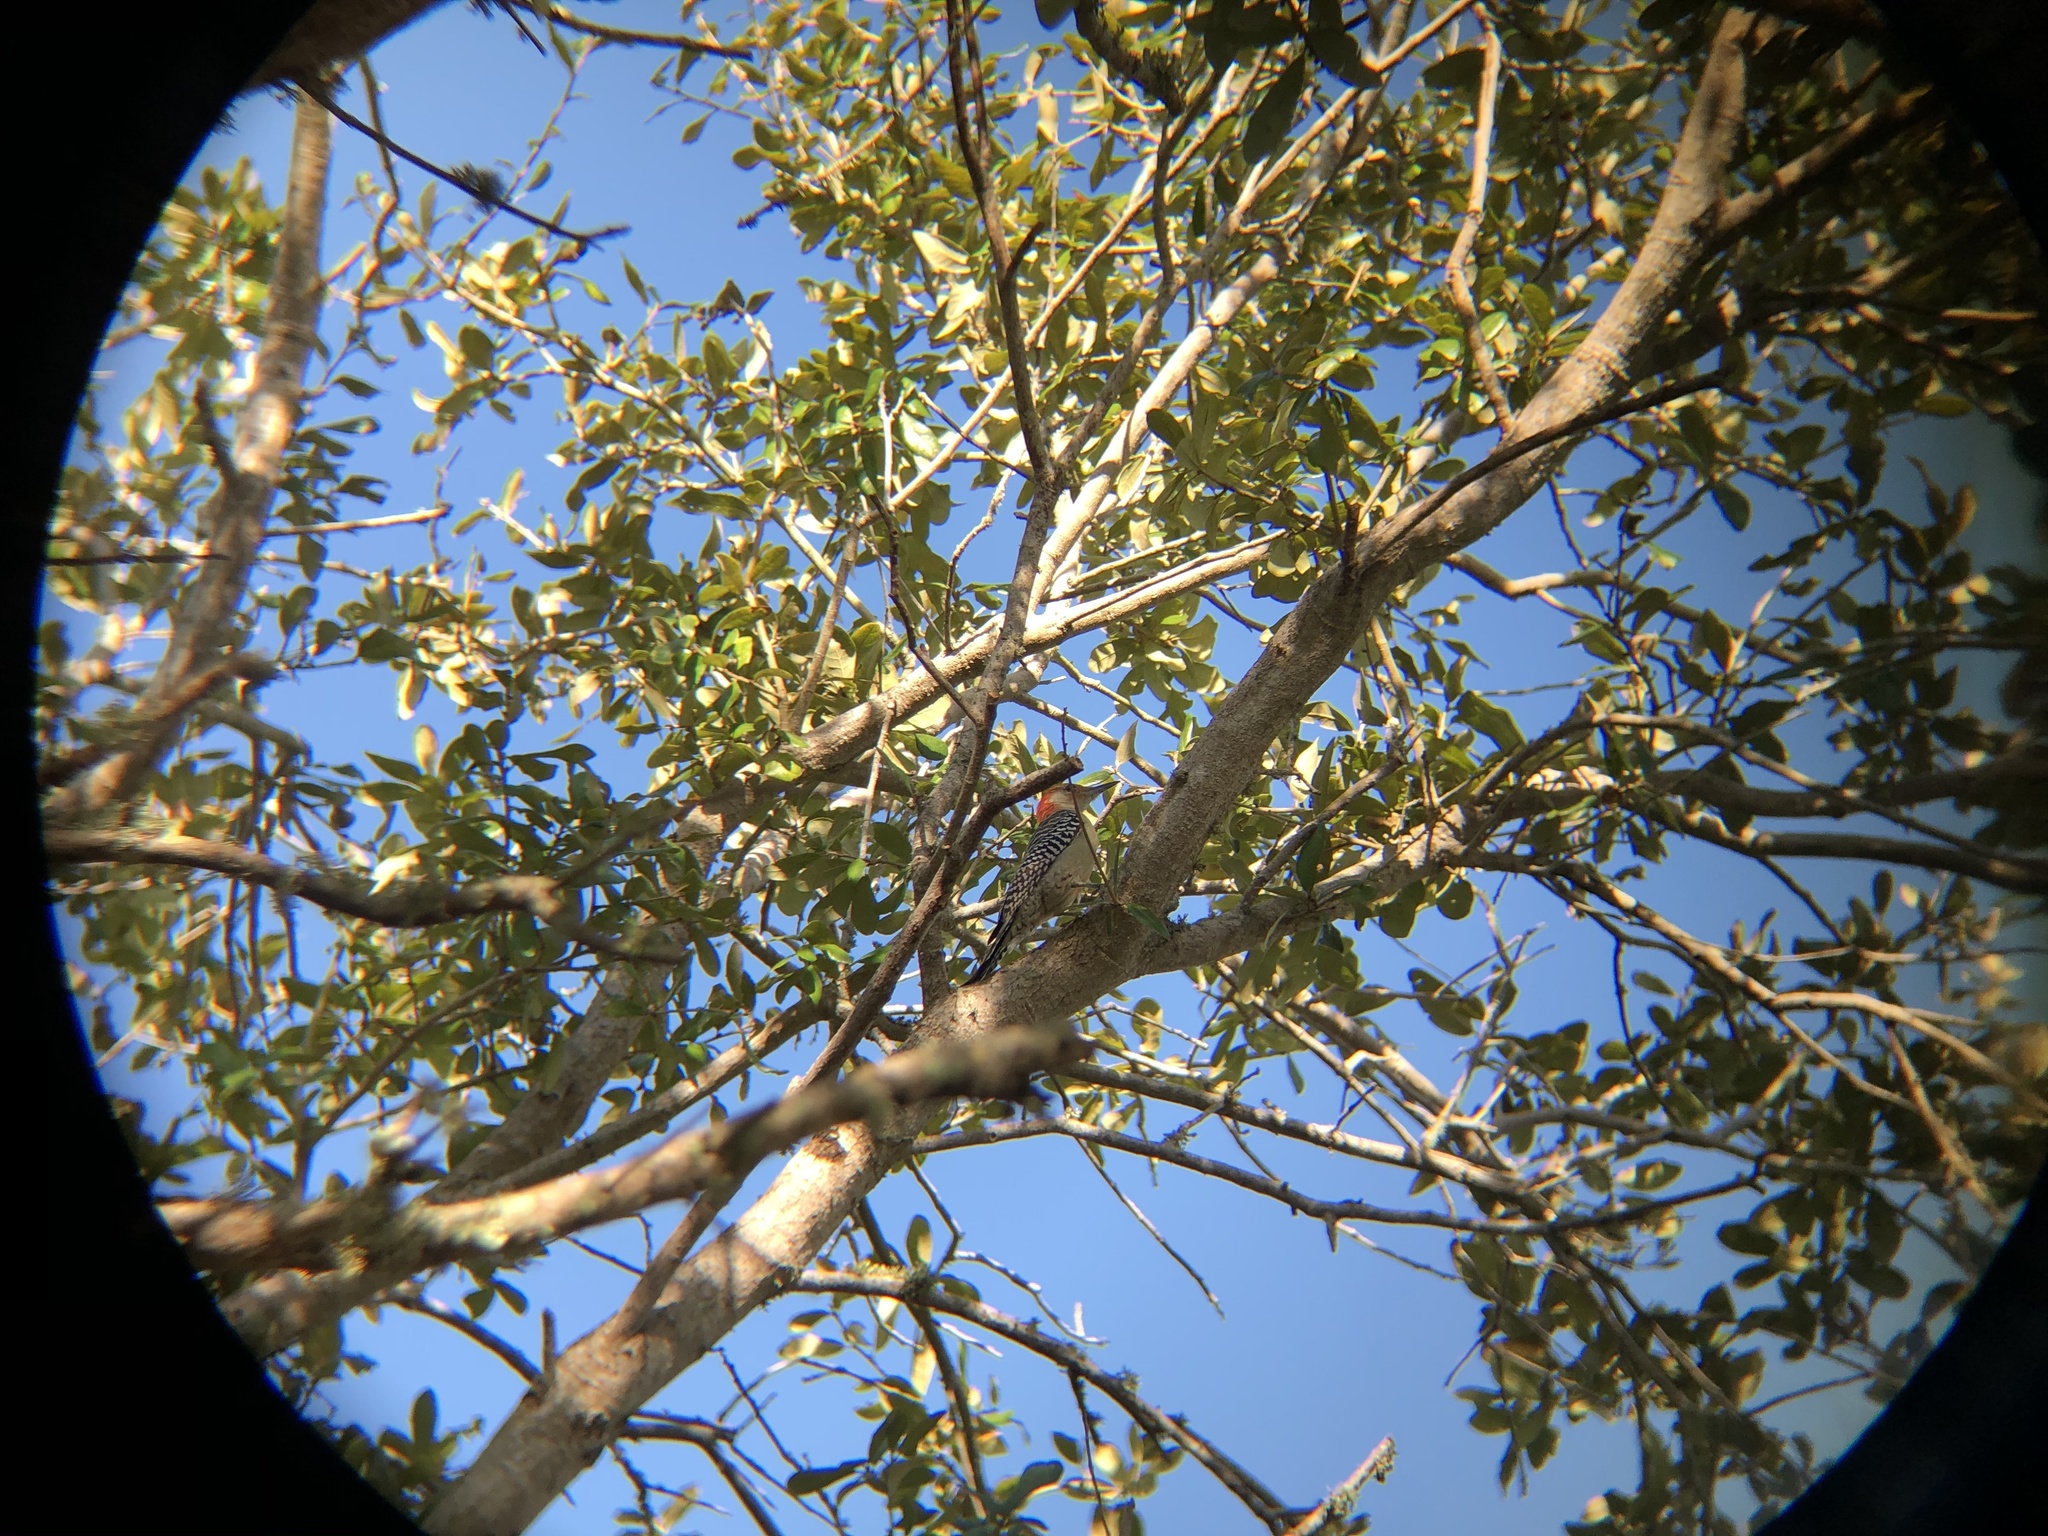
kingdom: Animalia
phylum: Chordata
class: Aves
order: Piciformes
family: Picidae
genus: Melanerpes
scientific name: Melanerpes carolinus
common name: Red-bellied woodpecker
